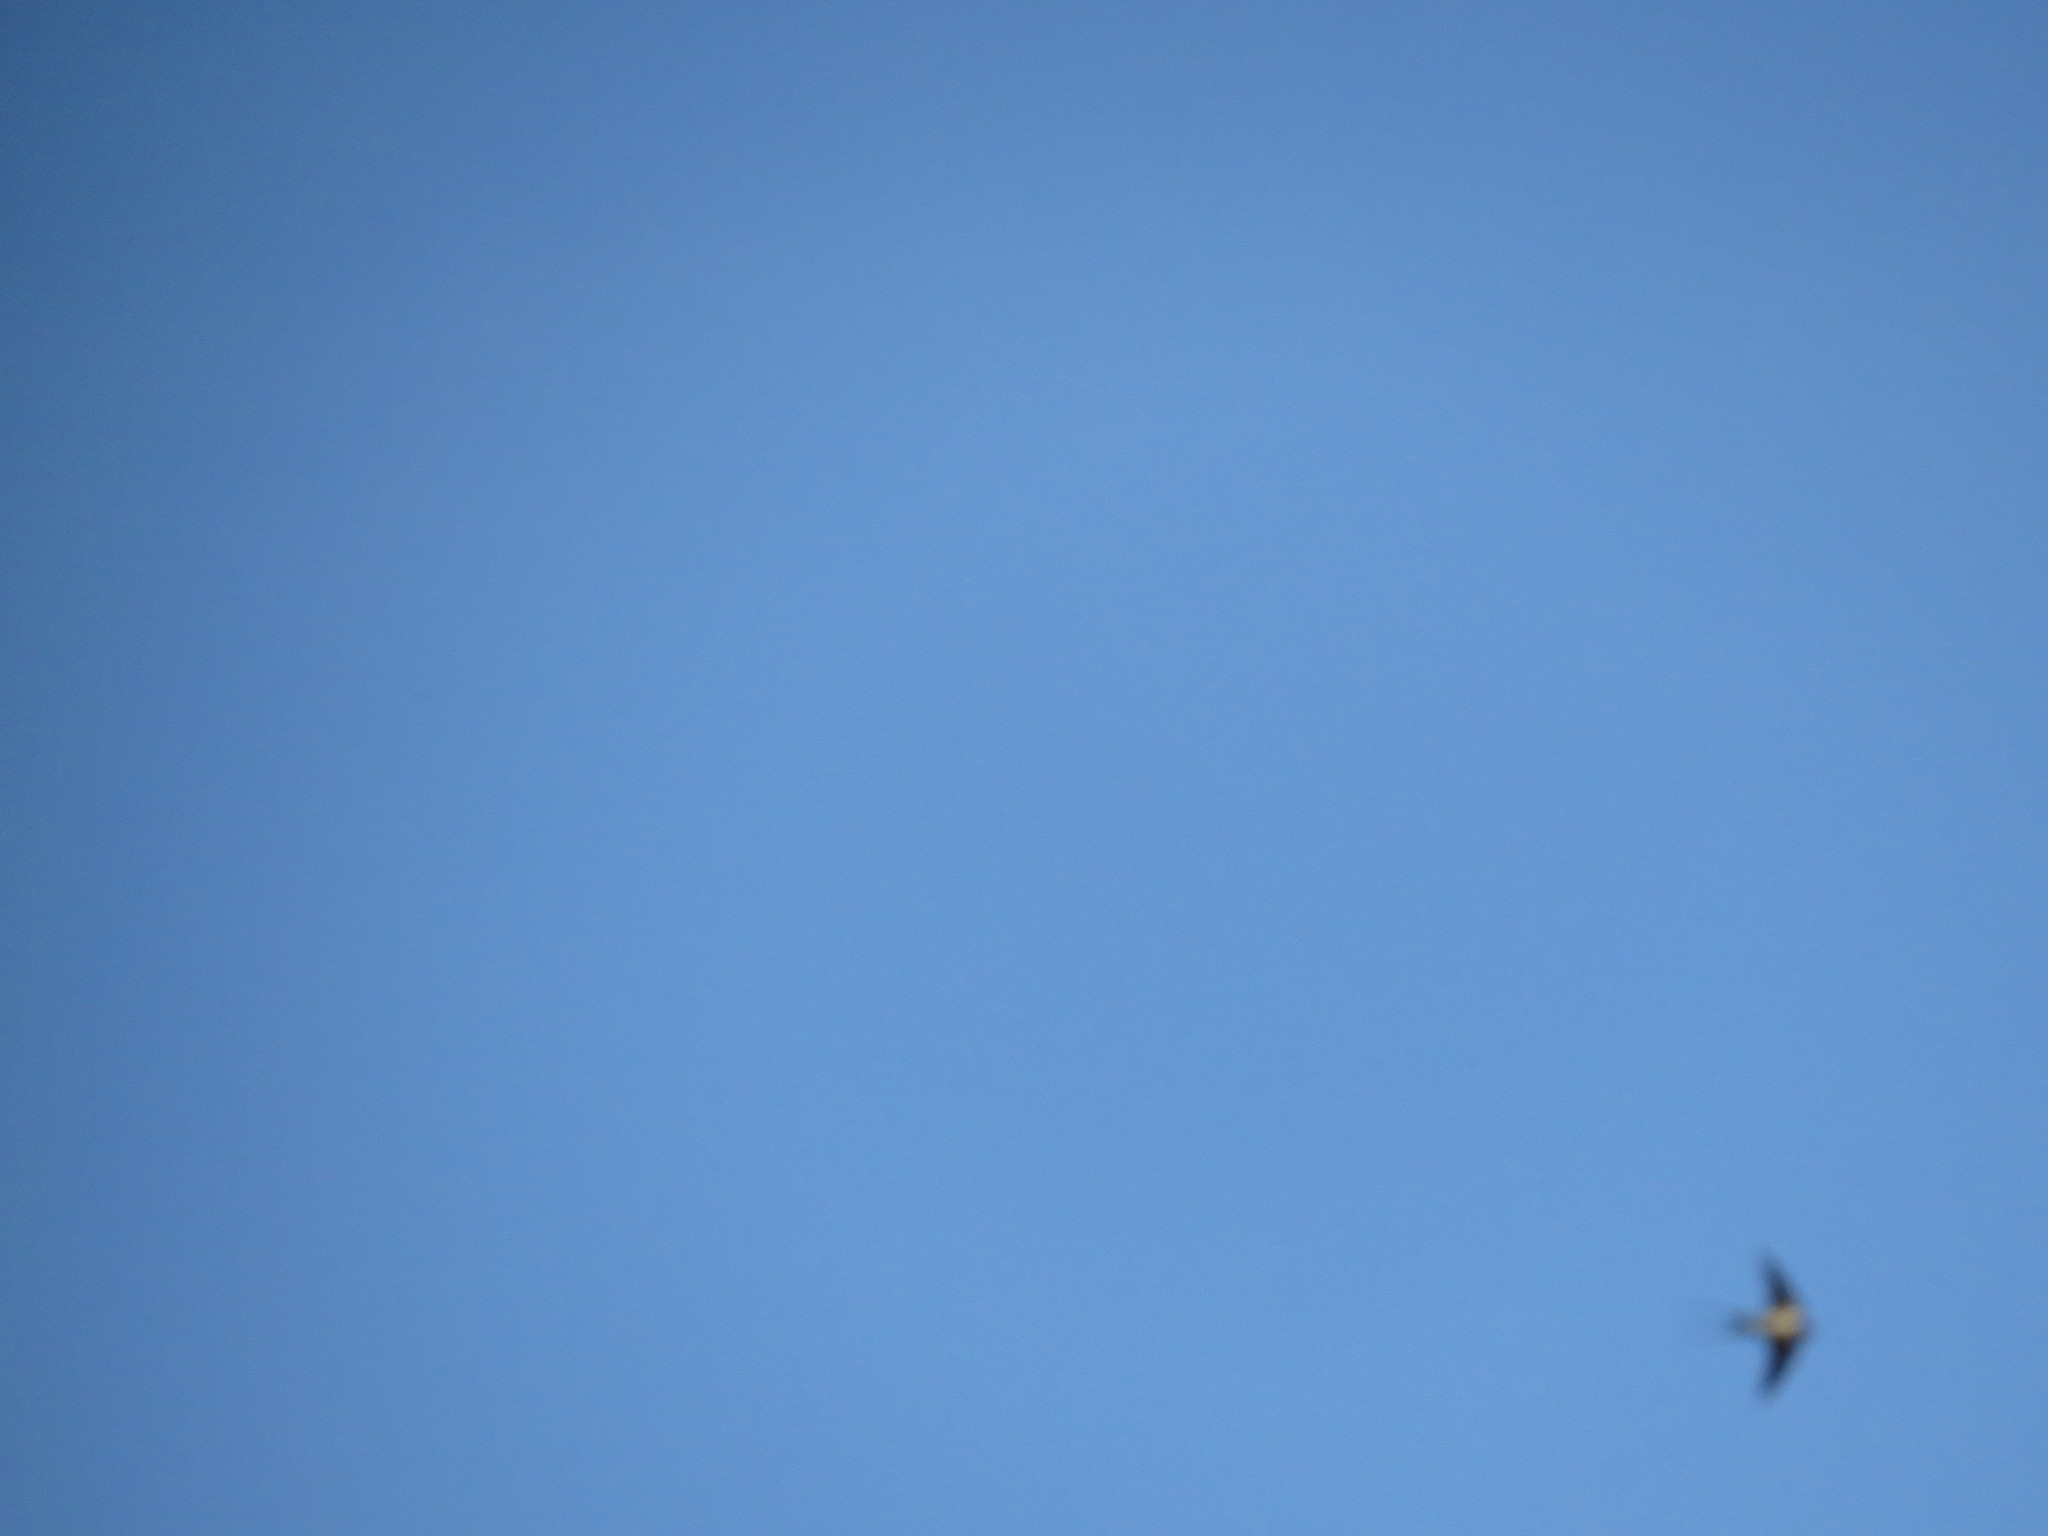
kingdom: Animalia
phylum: Chordata
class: Aves
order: Passeriformes
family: Hirundinidae
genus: Hirundo
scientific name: Hirundo rustica
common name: Barn swallow
